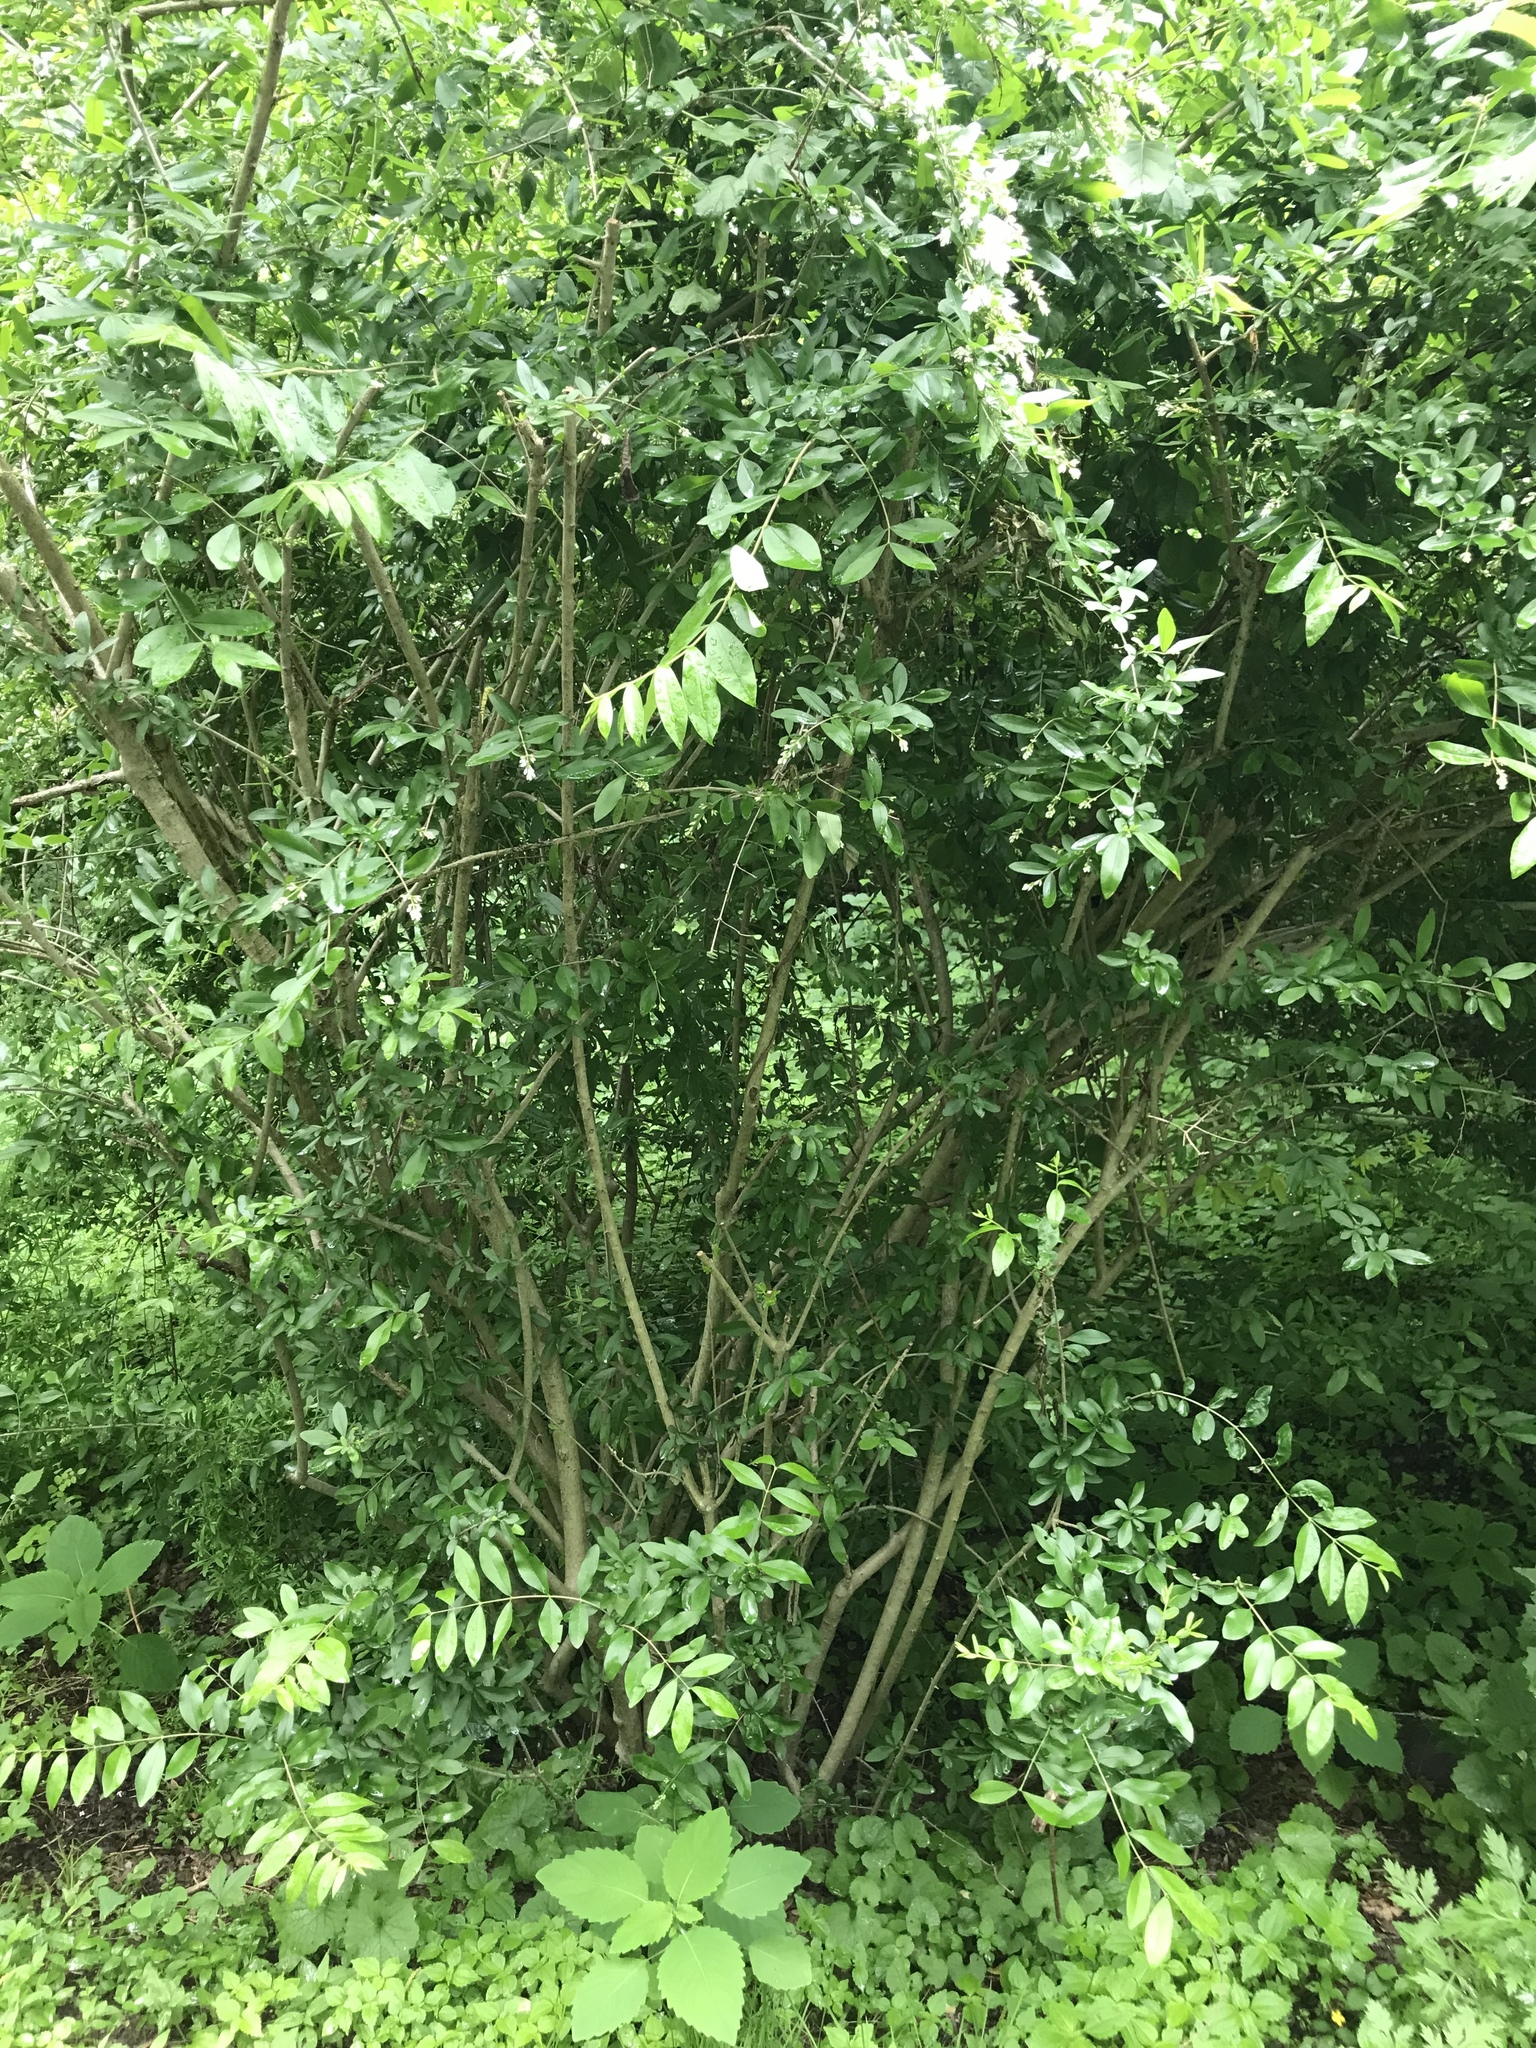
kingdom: Plantae
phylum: Tracheophyta
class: Magnoliopsida
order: Lamiales
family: Oleaceae
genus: Ligustrum
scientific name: Ligustrum obtusifolium
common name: Border privet
